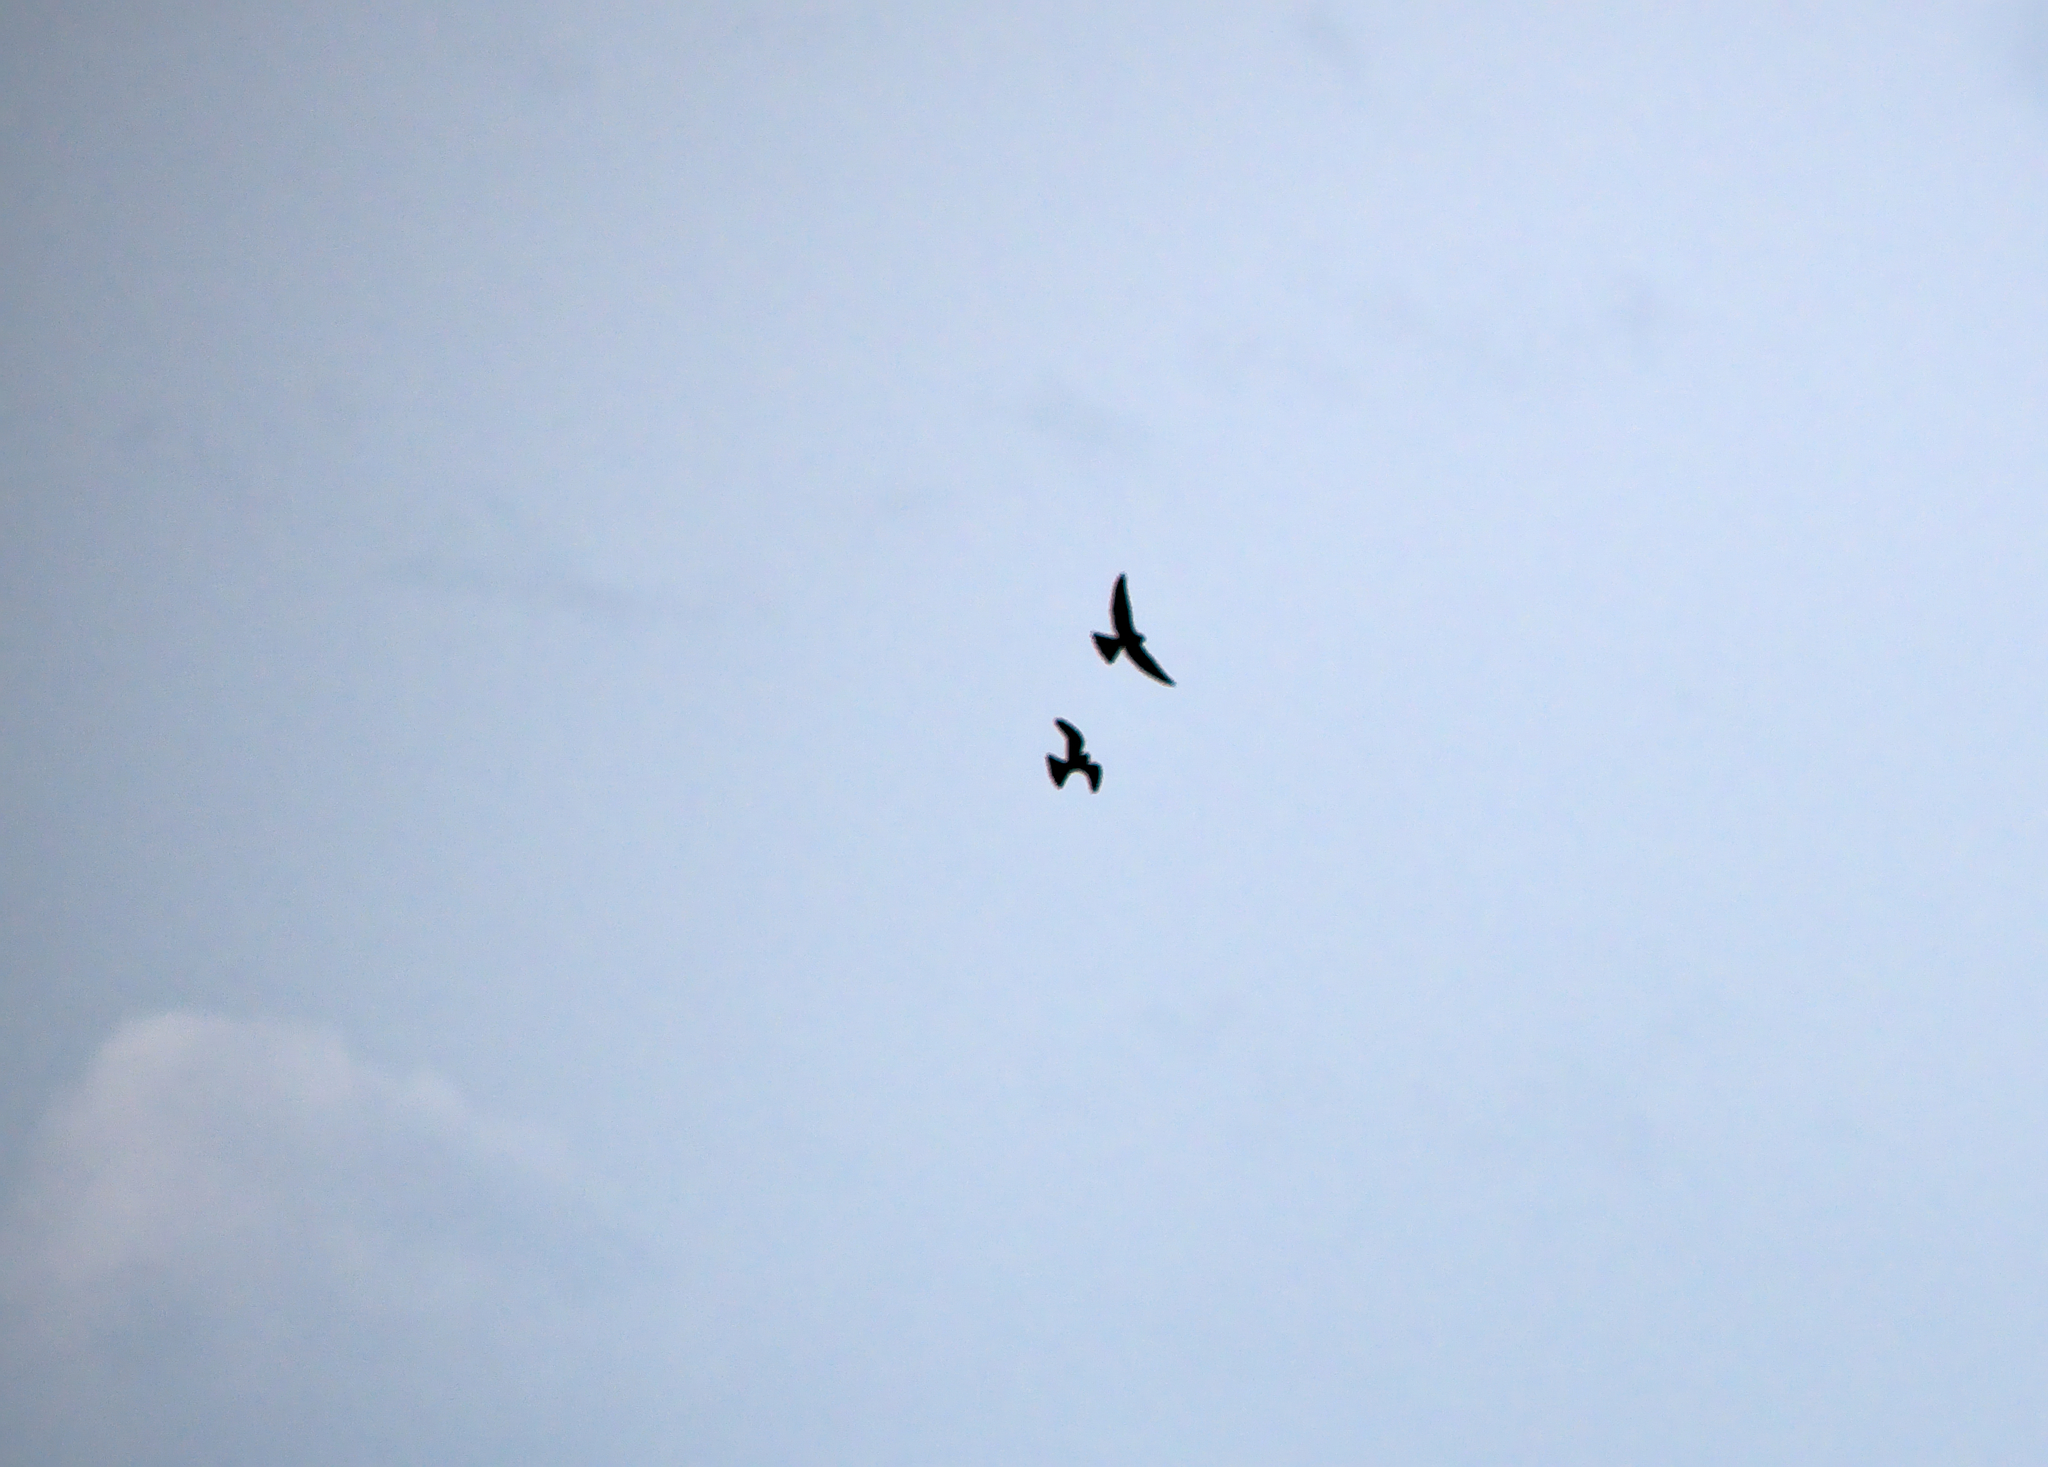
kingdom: Animalia
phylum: Chordata
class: Aves
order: Passeriformes
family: Corvidae
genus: Corvus
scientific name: Corvus corax
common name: Common raven
